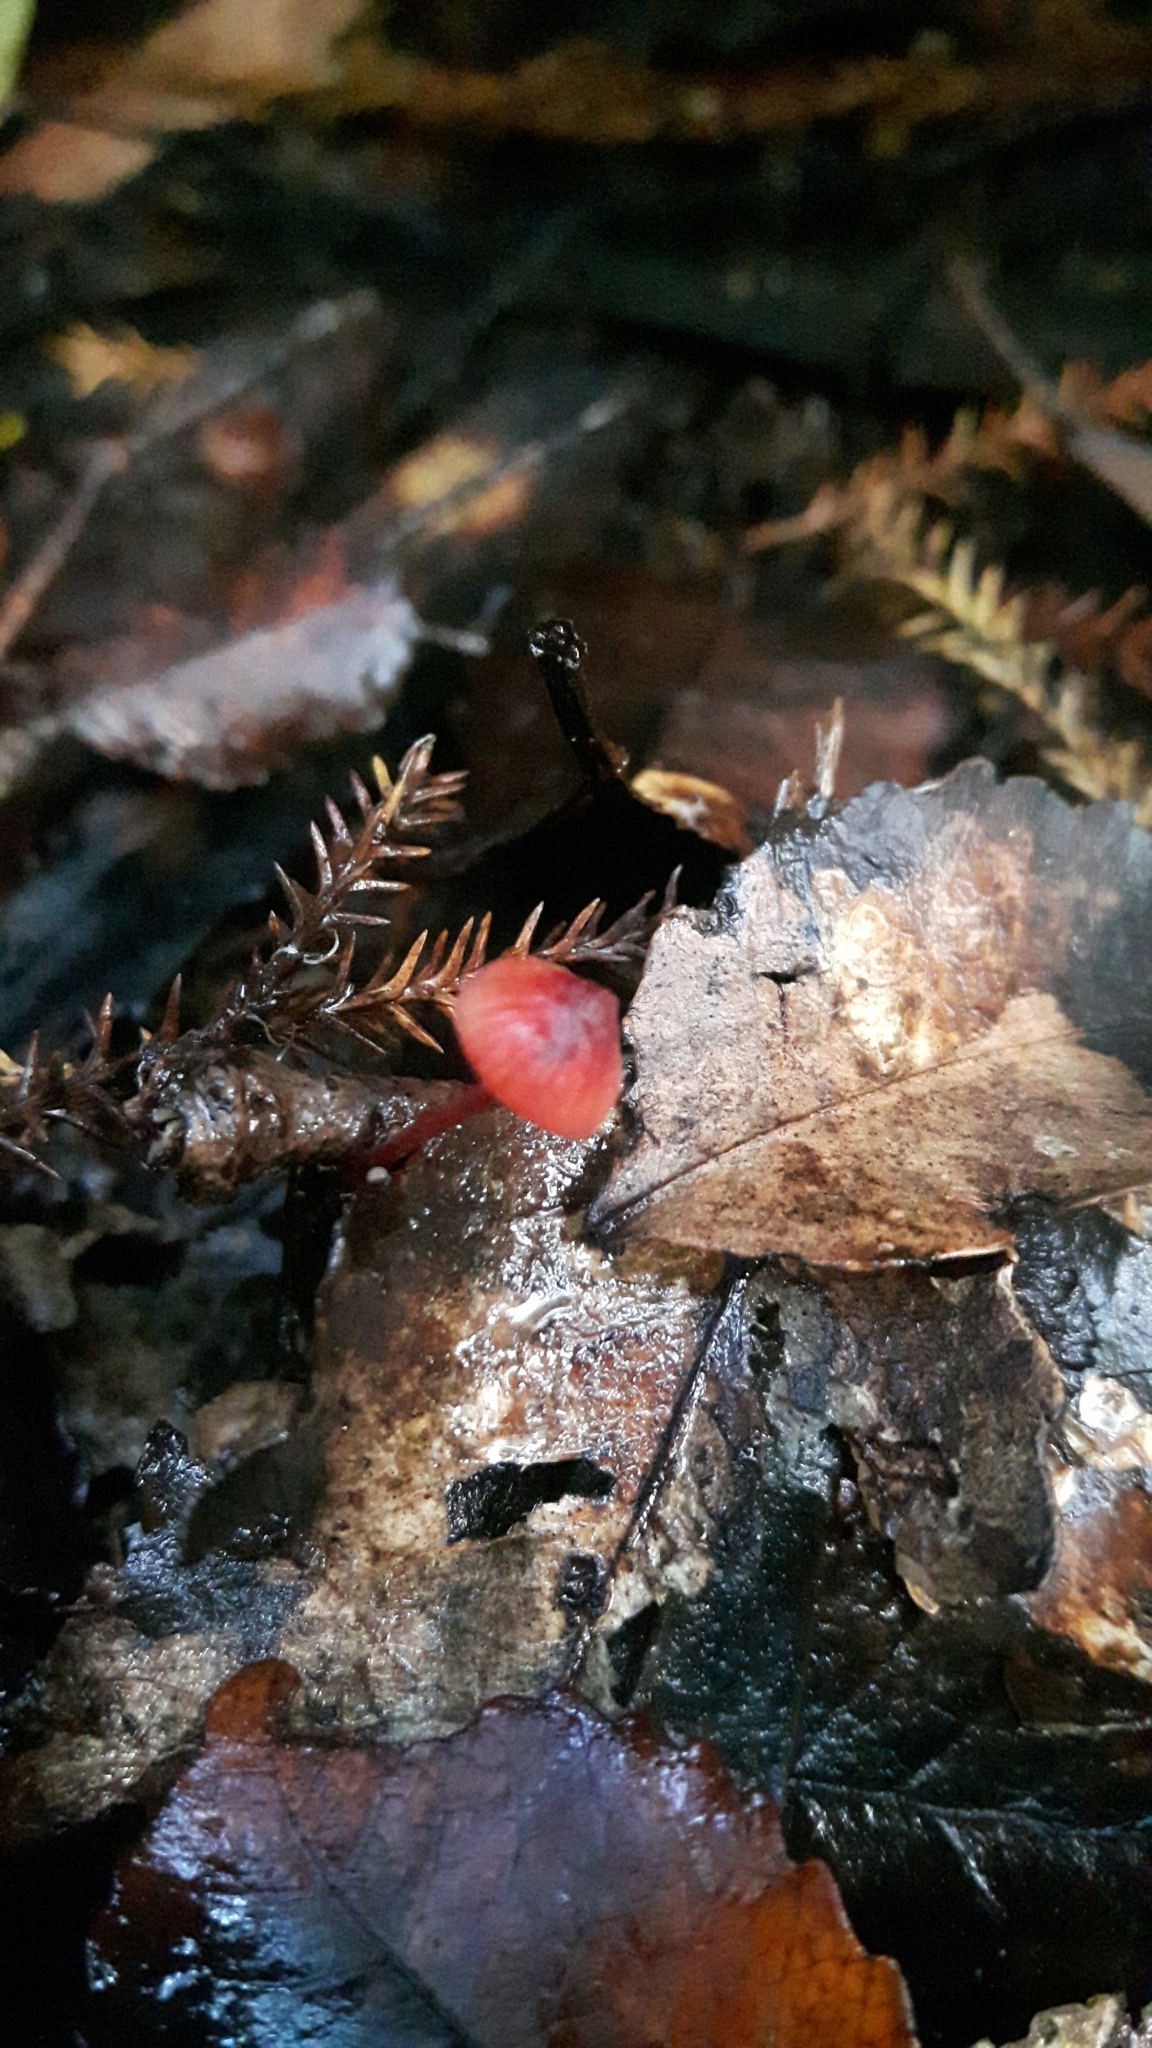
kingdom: Fungi
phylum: Basidiomycota
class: Agaricomycetes
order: Agaricales
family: Mycenaceae
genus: Mycena
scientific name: Mycena ura
